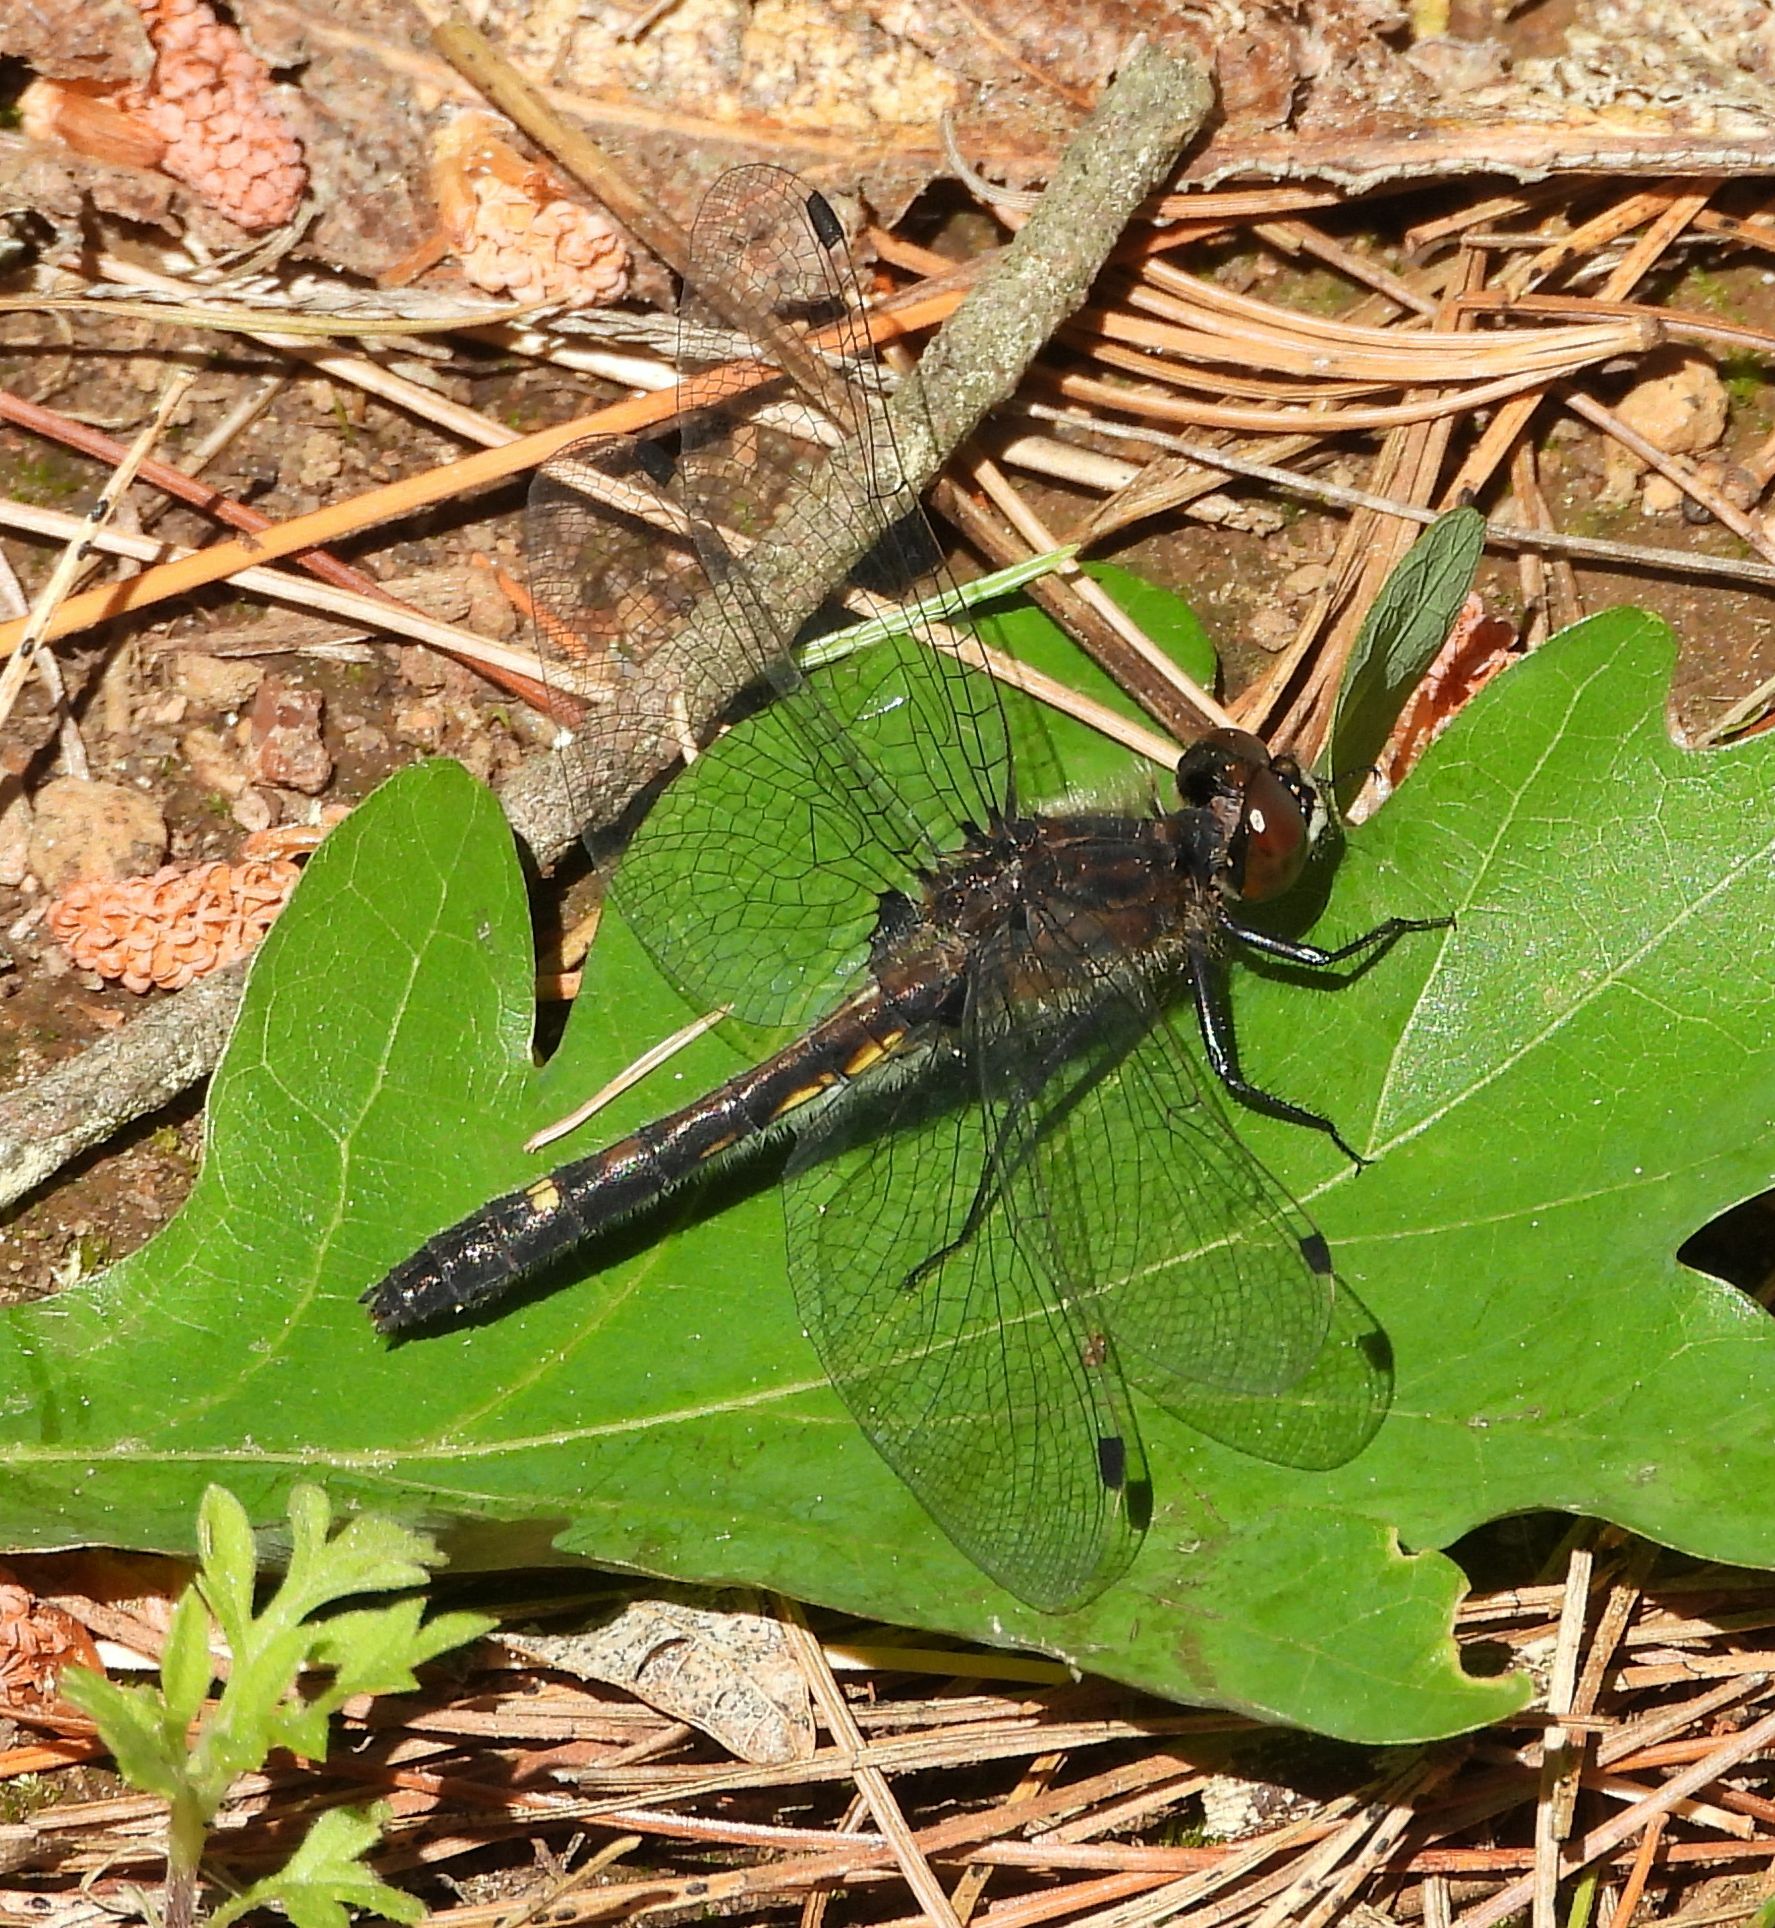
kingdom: Animalia
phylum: Arthropoda
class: Insecta
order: Odonata
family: Libellulidae
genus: Leucorrhinia
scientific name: Leucorrhinia intacta
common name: Dot-tailed whiteface
